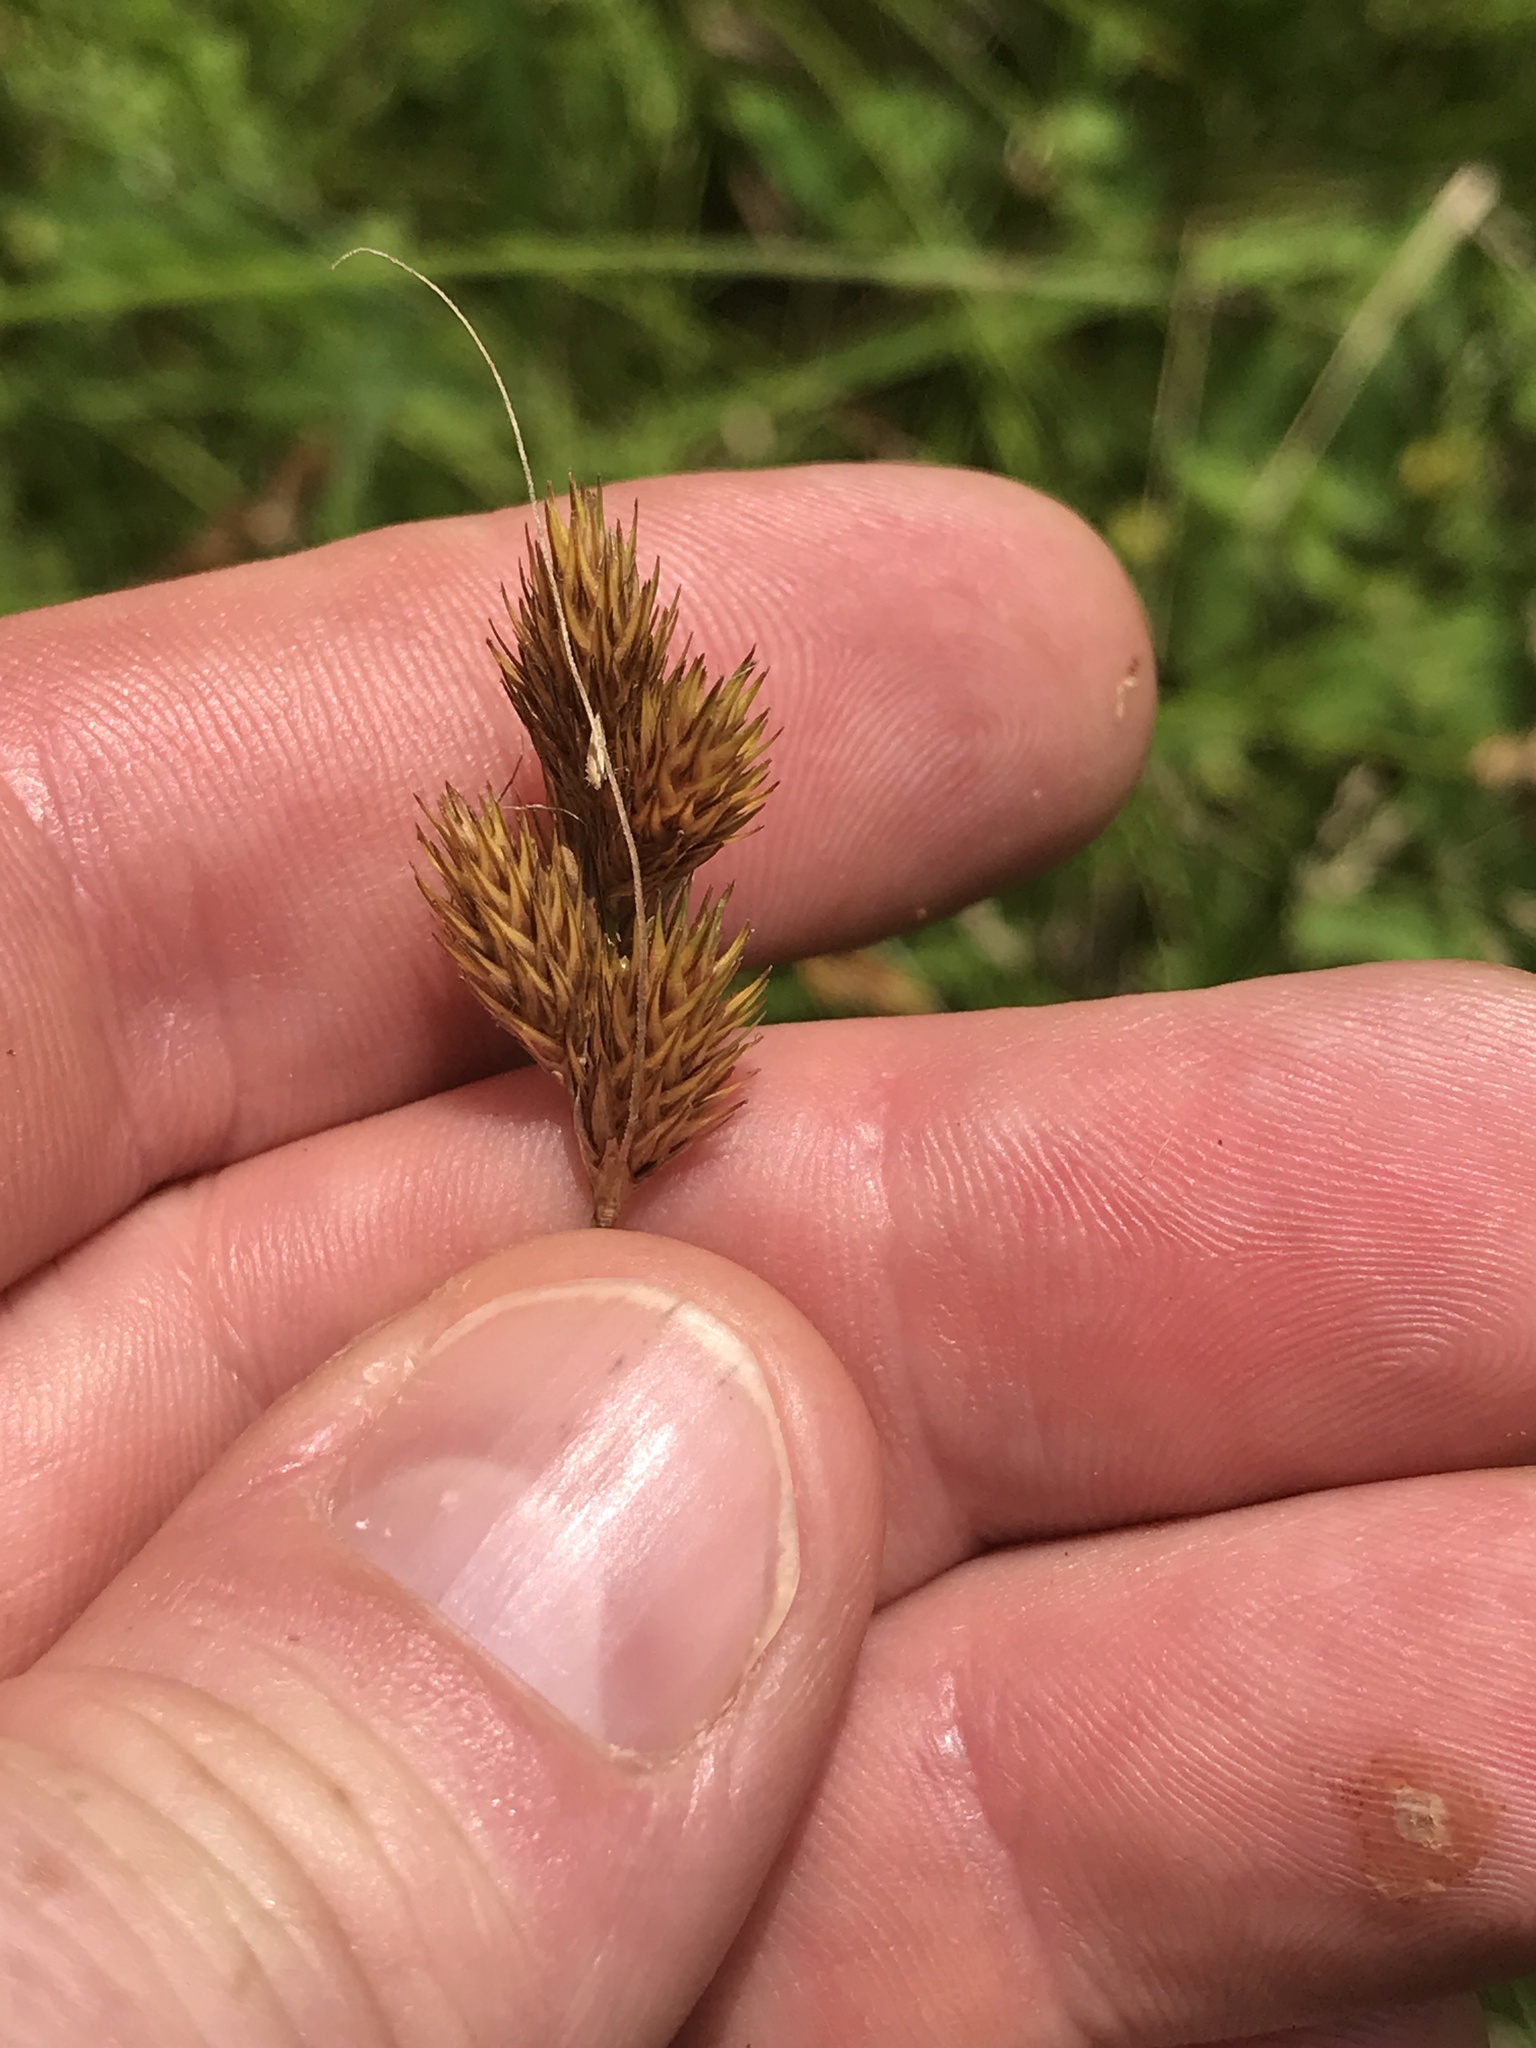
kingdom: Plantae
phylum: Tracheophyta
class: Liliopsida
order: Poales
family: Cyperaceae
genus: Carex
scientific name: Carex scoparia
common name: Broom sedge
